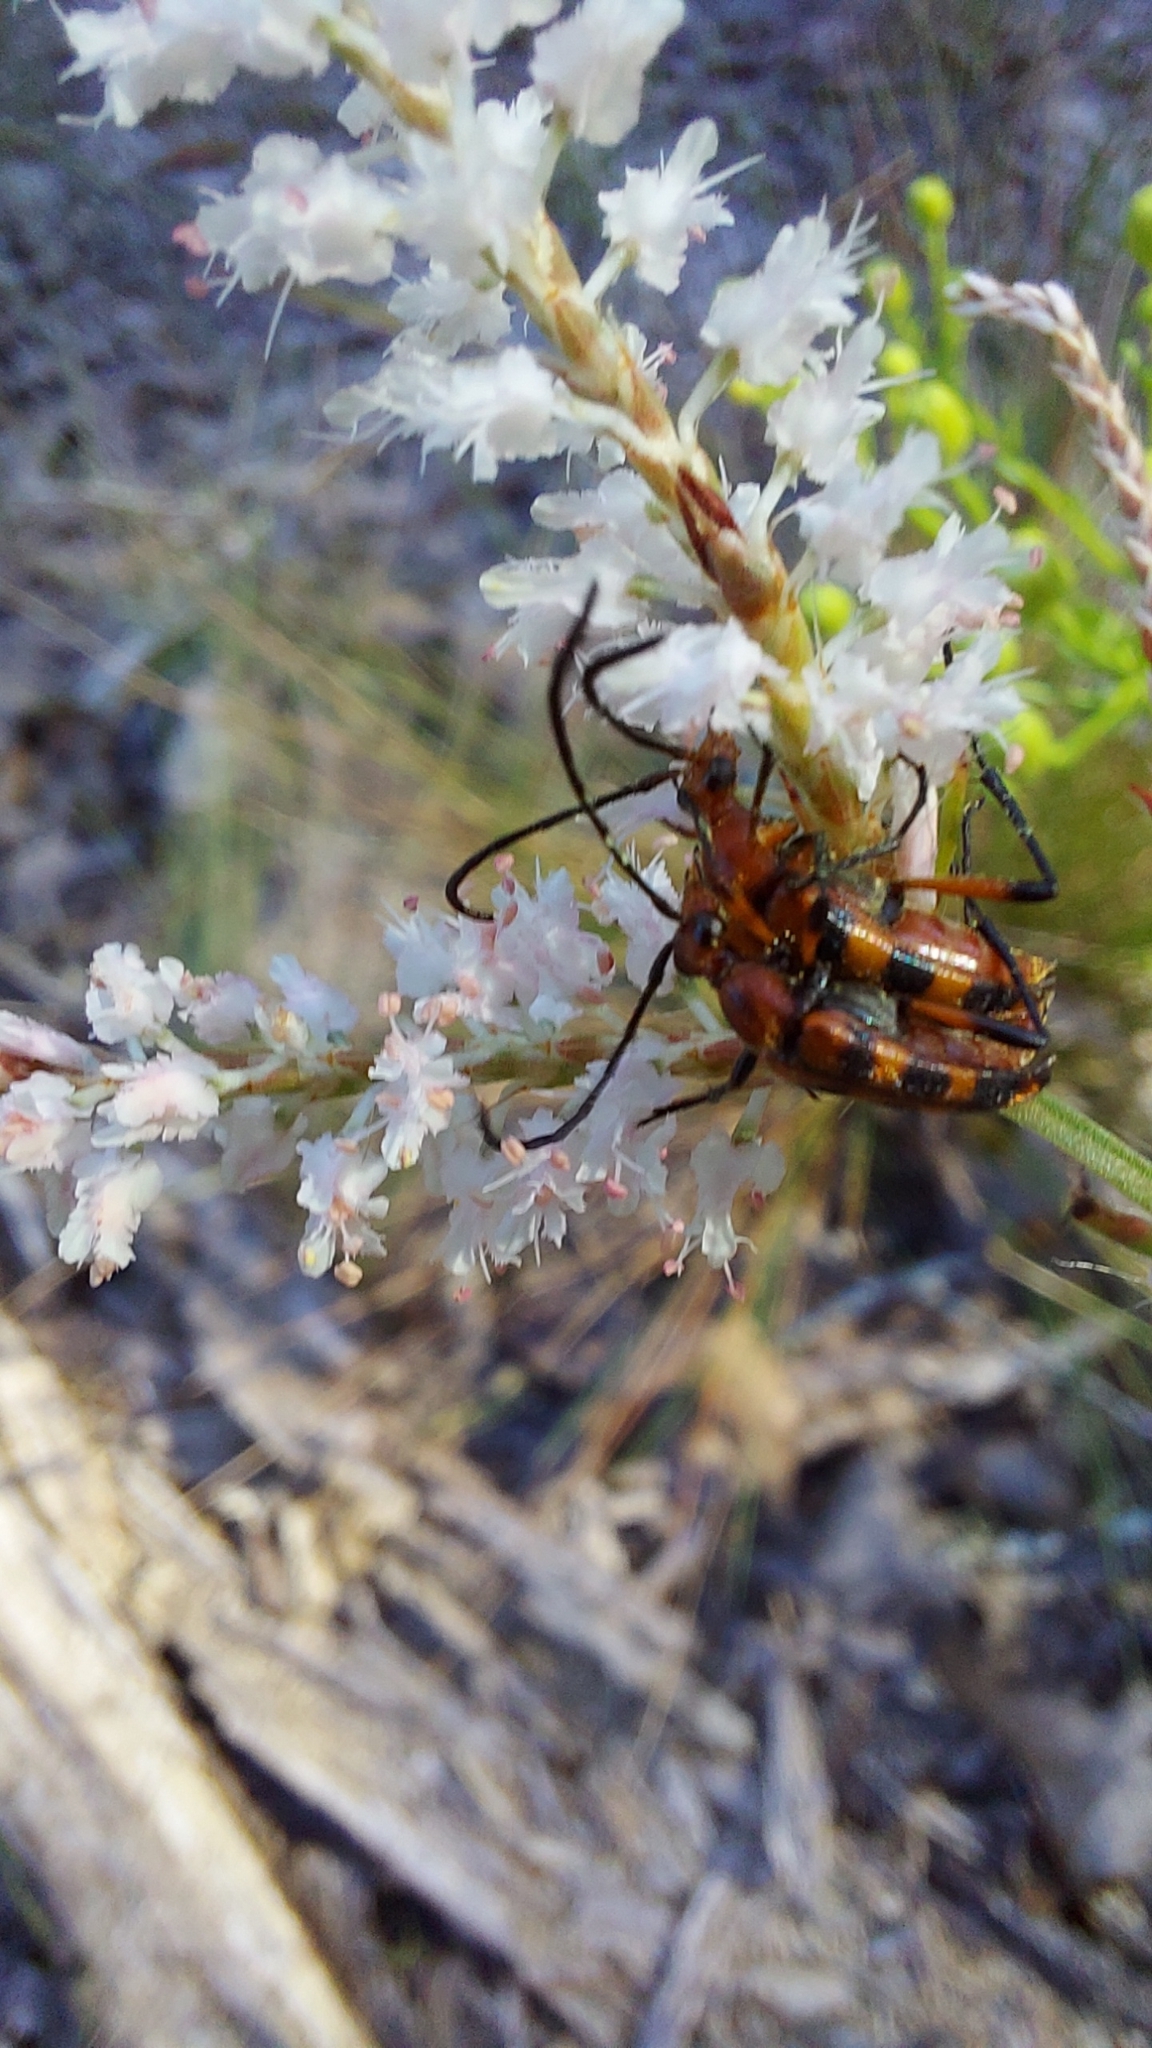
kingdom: Animalia
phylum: Arthropoda
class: Insecta
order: Coleoptera
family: Cerambycidae
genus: Strangalia
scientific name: Strangalia sexnotata
